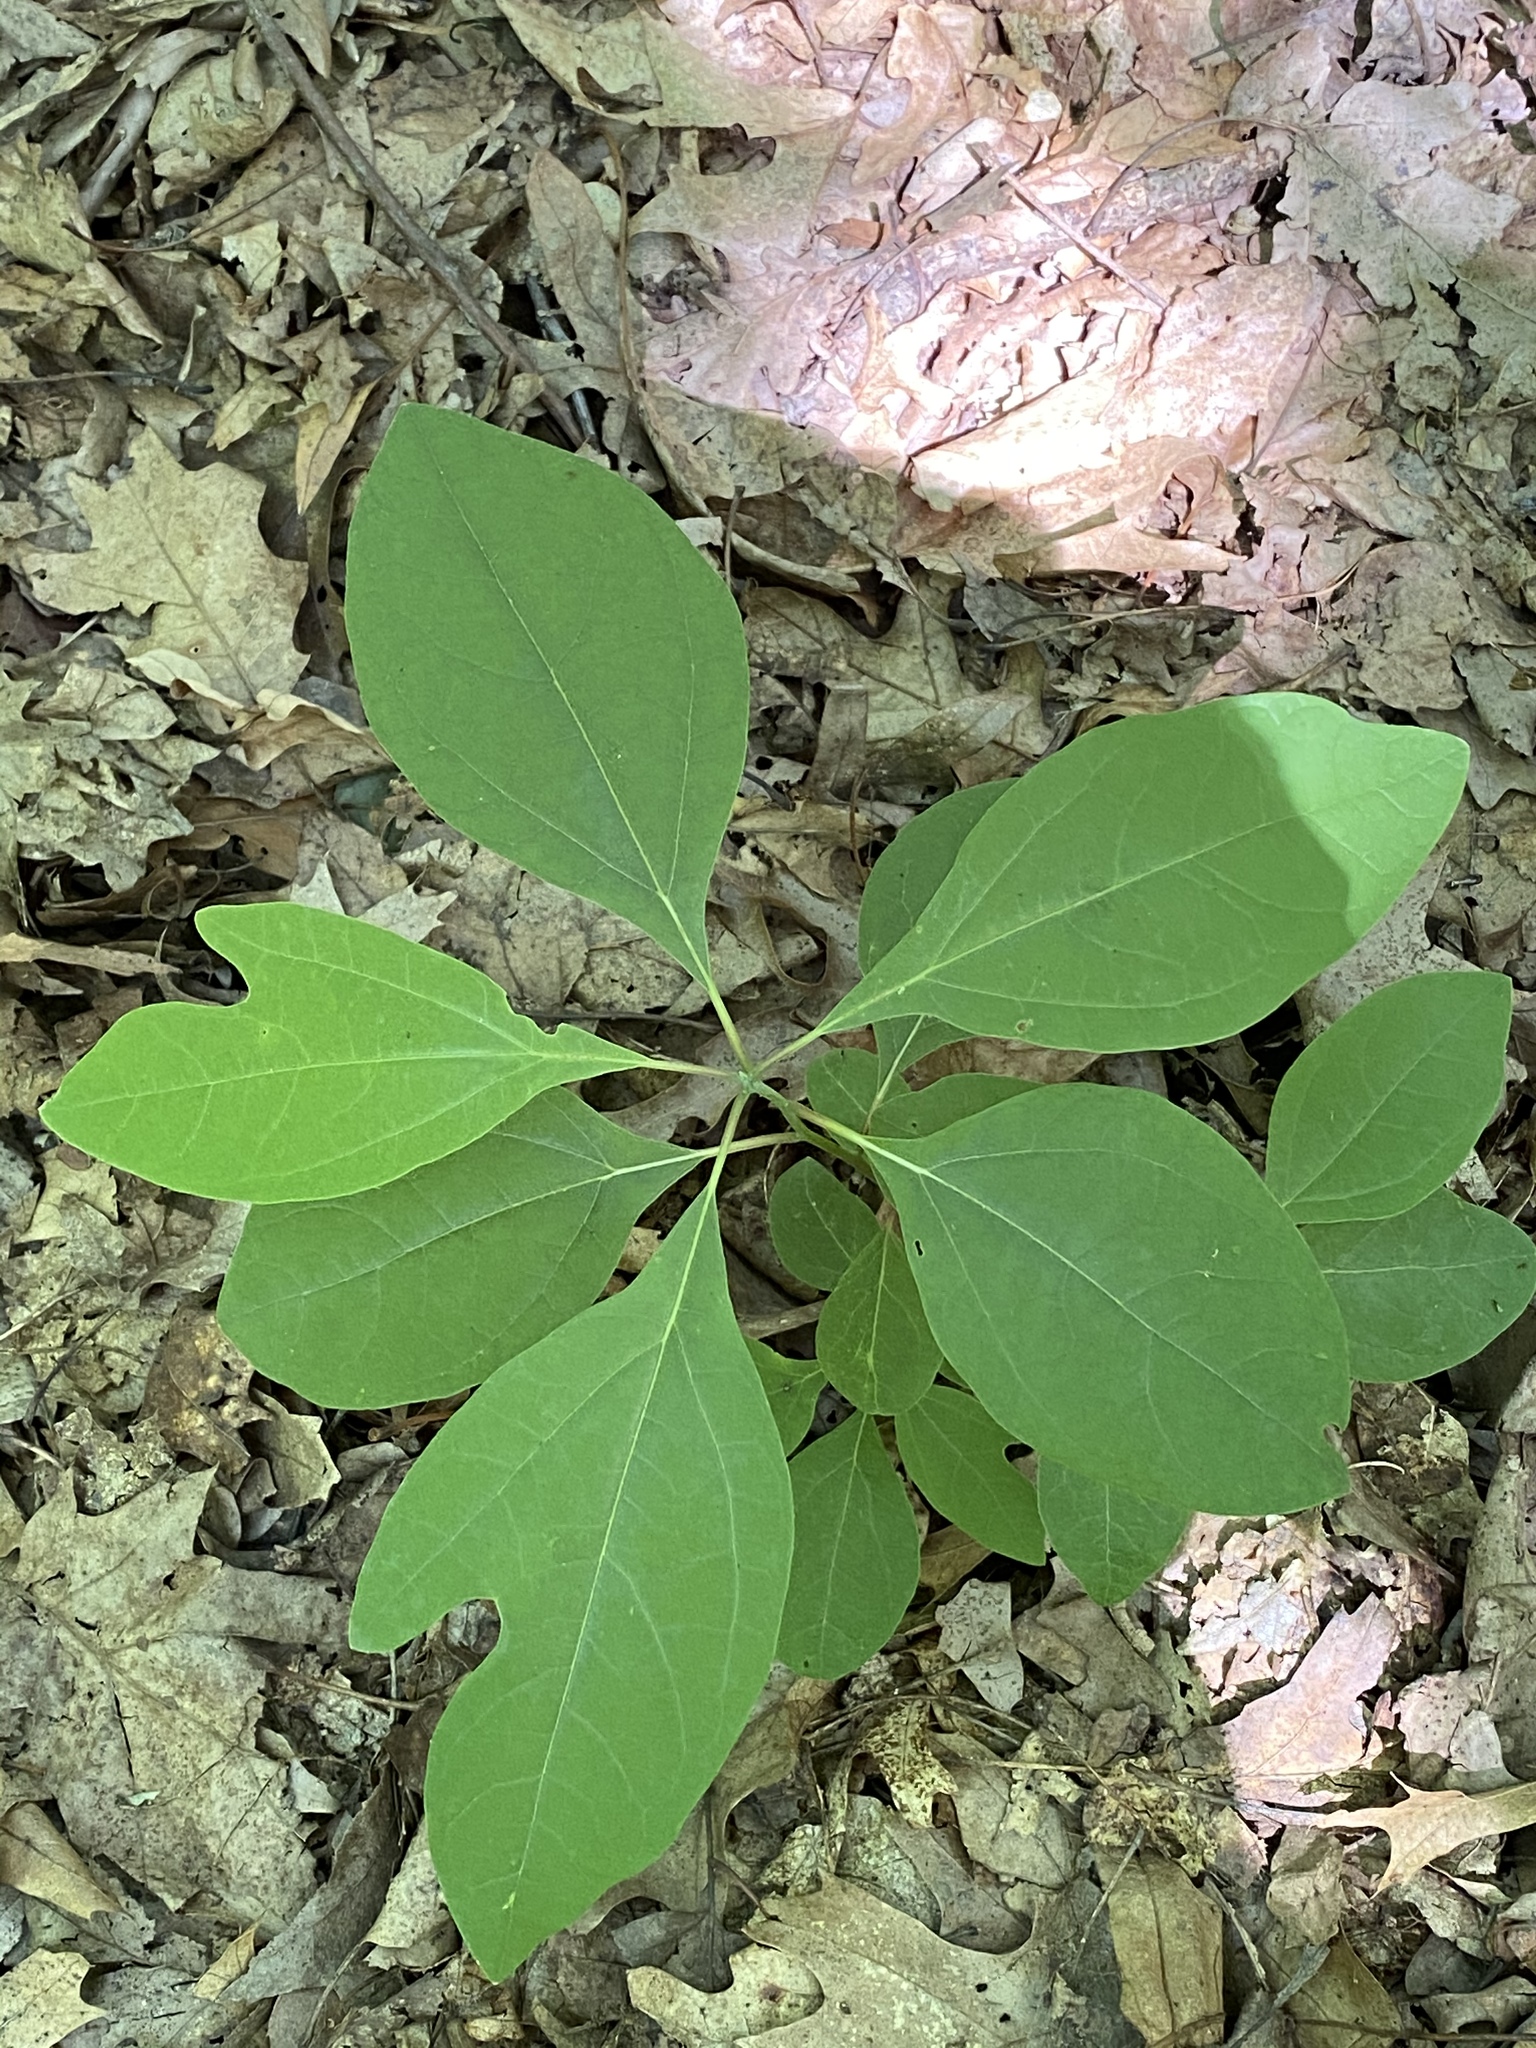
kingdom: Plantae
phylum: Tracheophyta
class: Magnoliopsida
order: Laurales
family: Lauraceae
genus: Sassafras
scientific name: Sassafras albidum
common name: Sassafras
